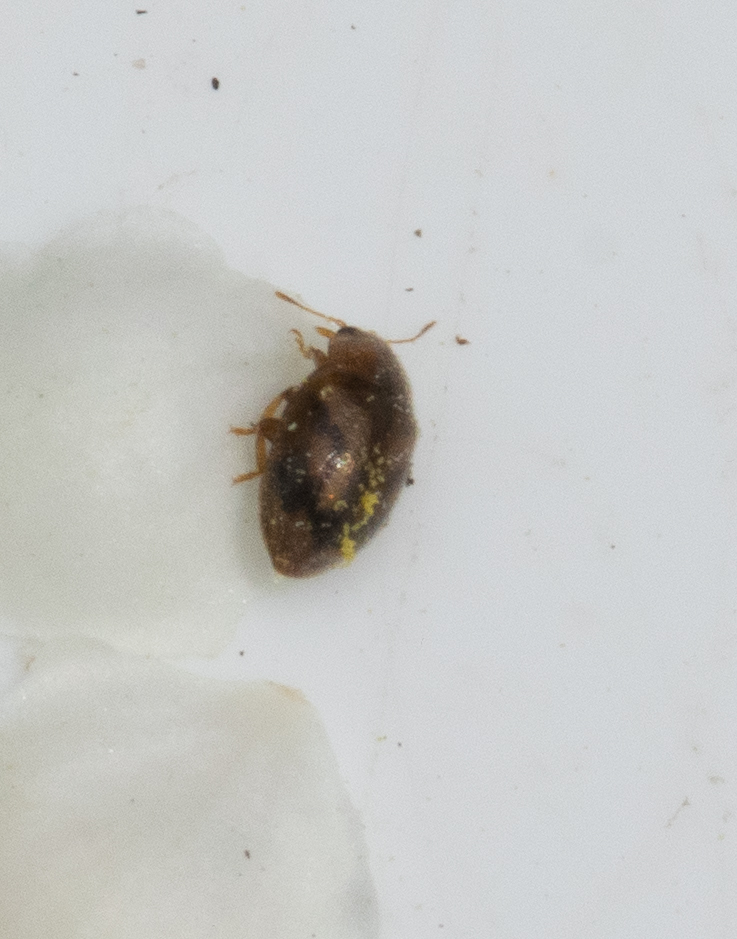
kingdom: Animalia
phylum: Arthropoda
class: Insecta
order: Coleoptera
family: Coccinellidae
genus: Rhyzobius
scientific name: Rhyzobius chrysomeloides
